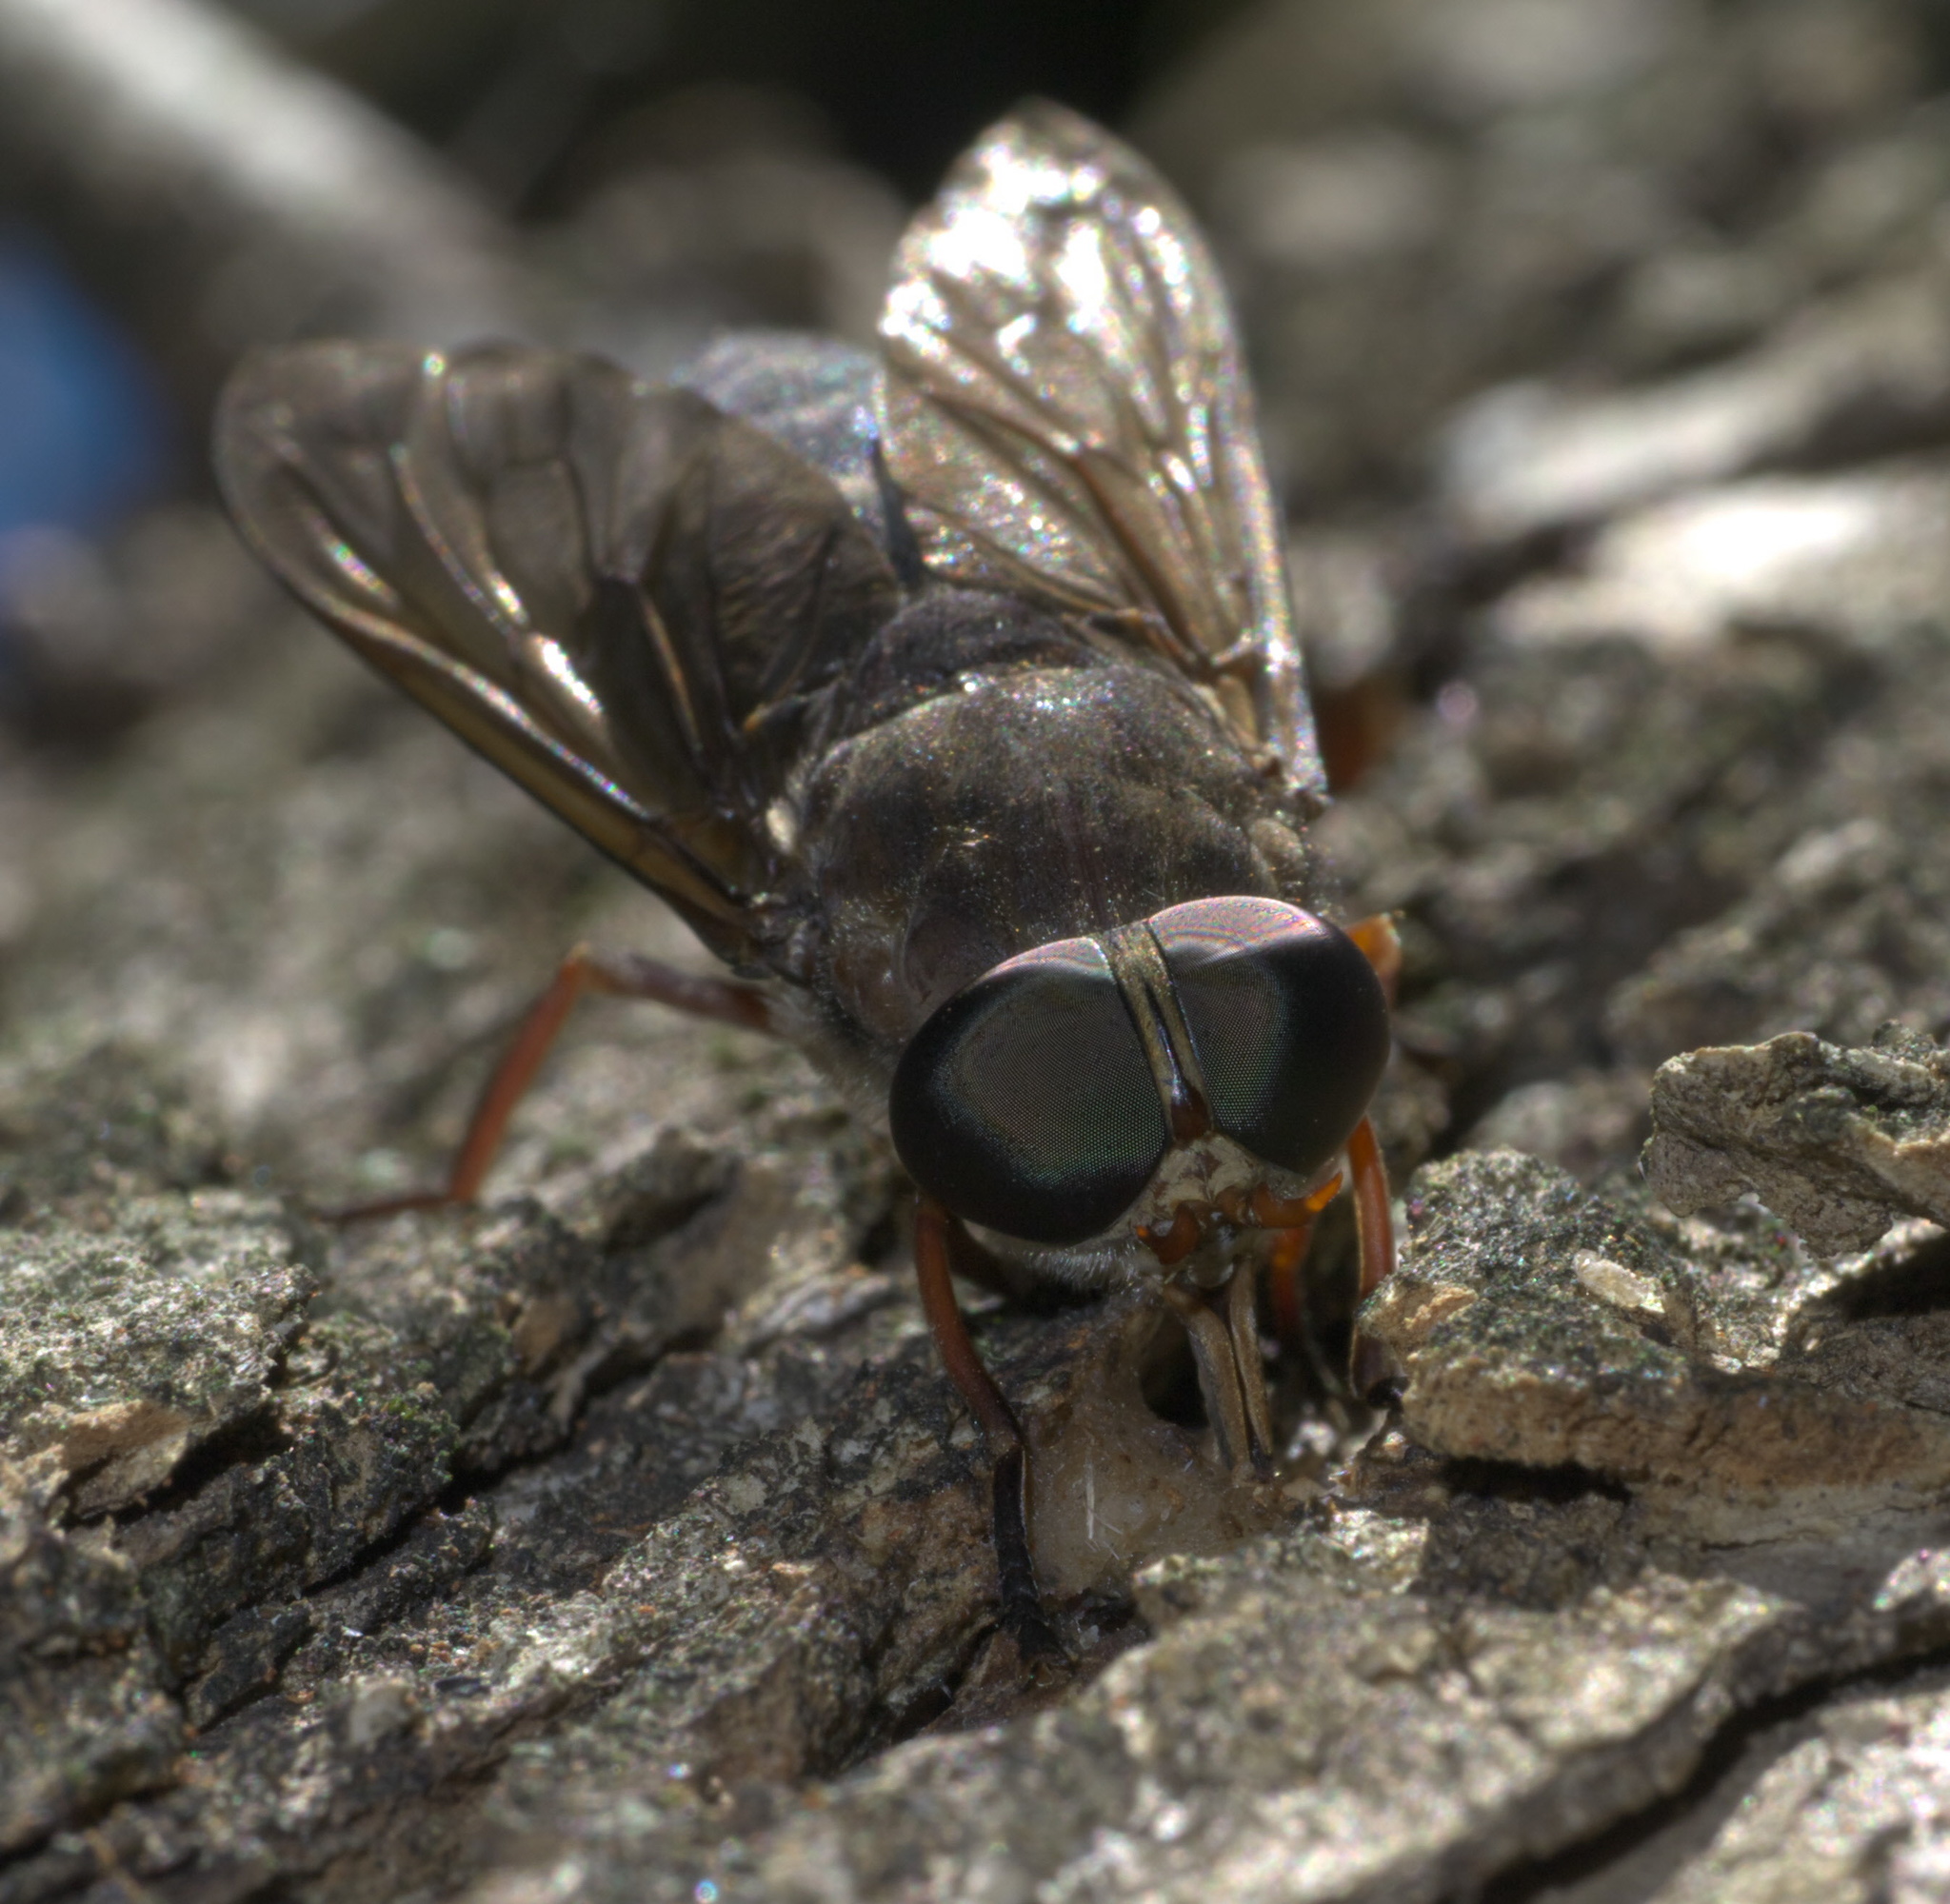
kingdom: Animalia
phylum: Arthropoda
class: Insecta
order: Diptera
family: Tabanidae
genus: Tabanus
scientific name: Tabanus calens
